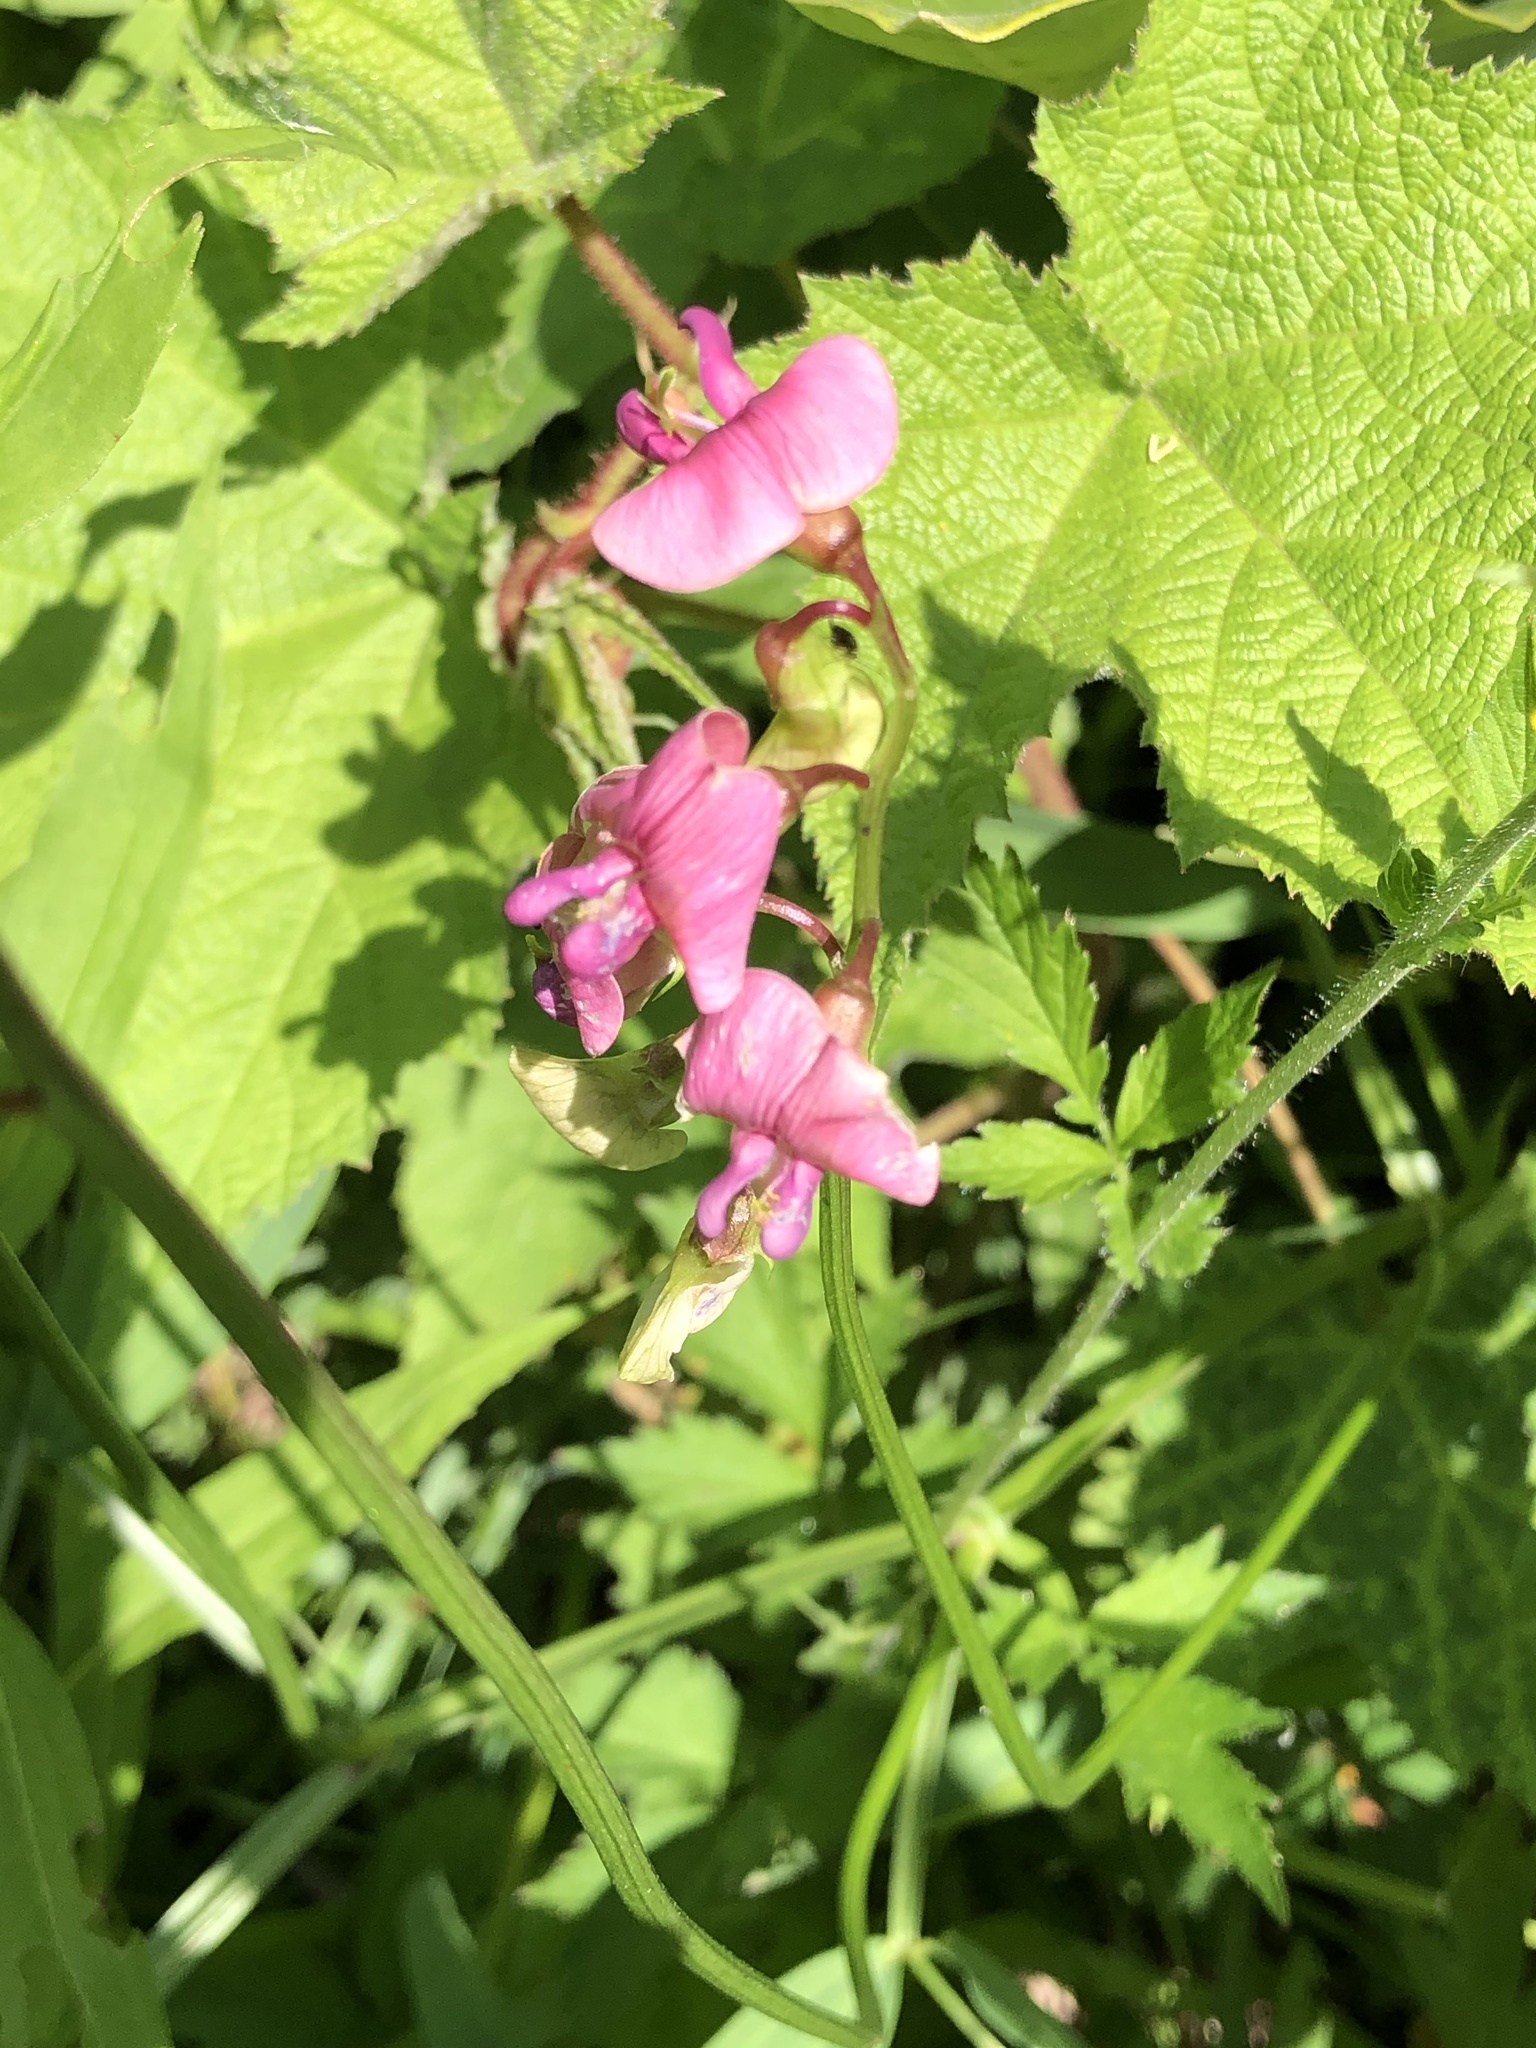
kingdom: Plantae
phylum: Tracheophyta
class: Magnoliopsida
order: Fabales
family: Fabaceae
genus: Lathyrus
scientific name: Lathyrus sylvestris
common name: Flat pea
